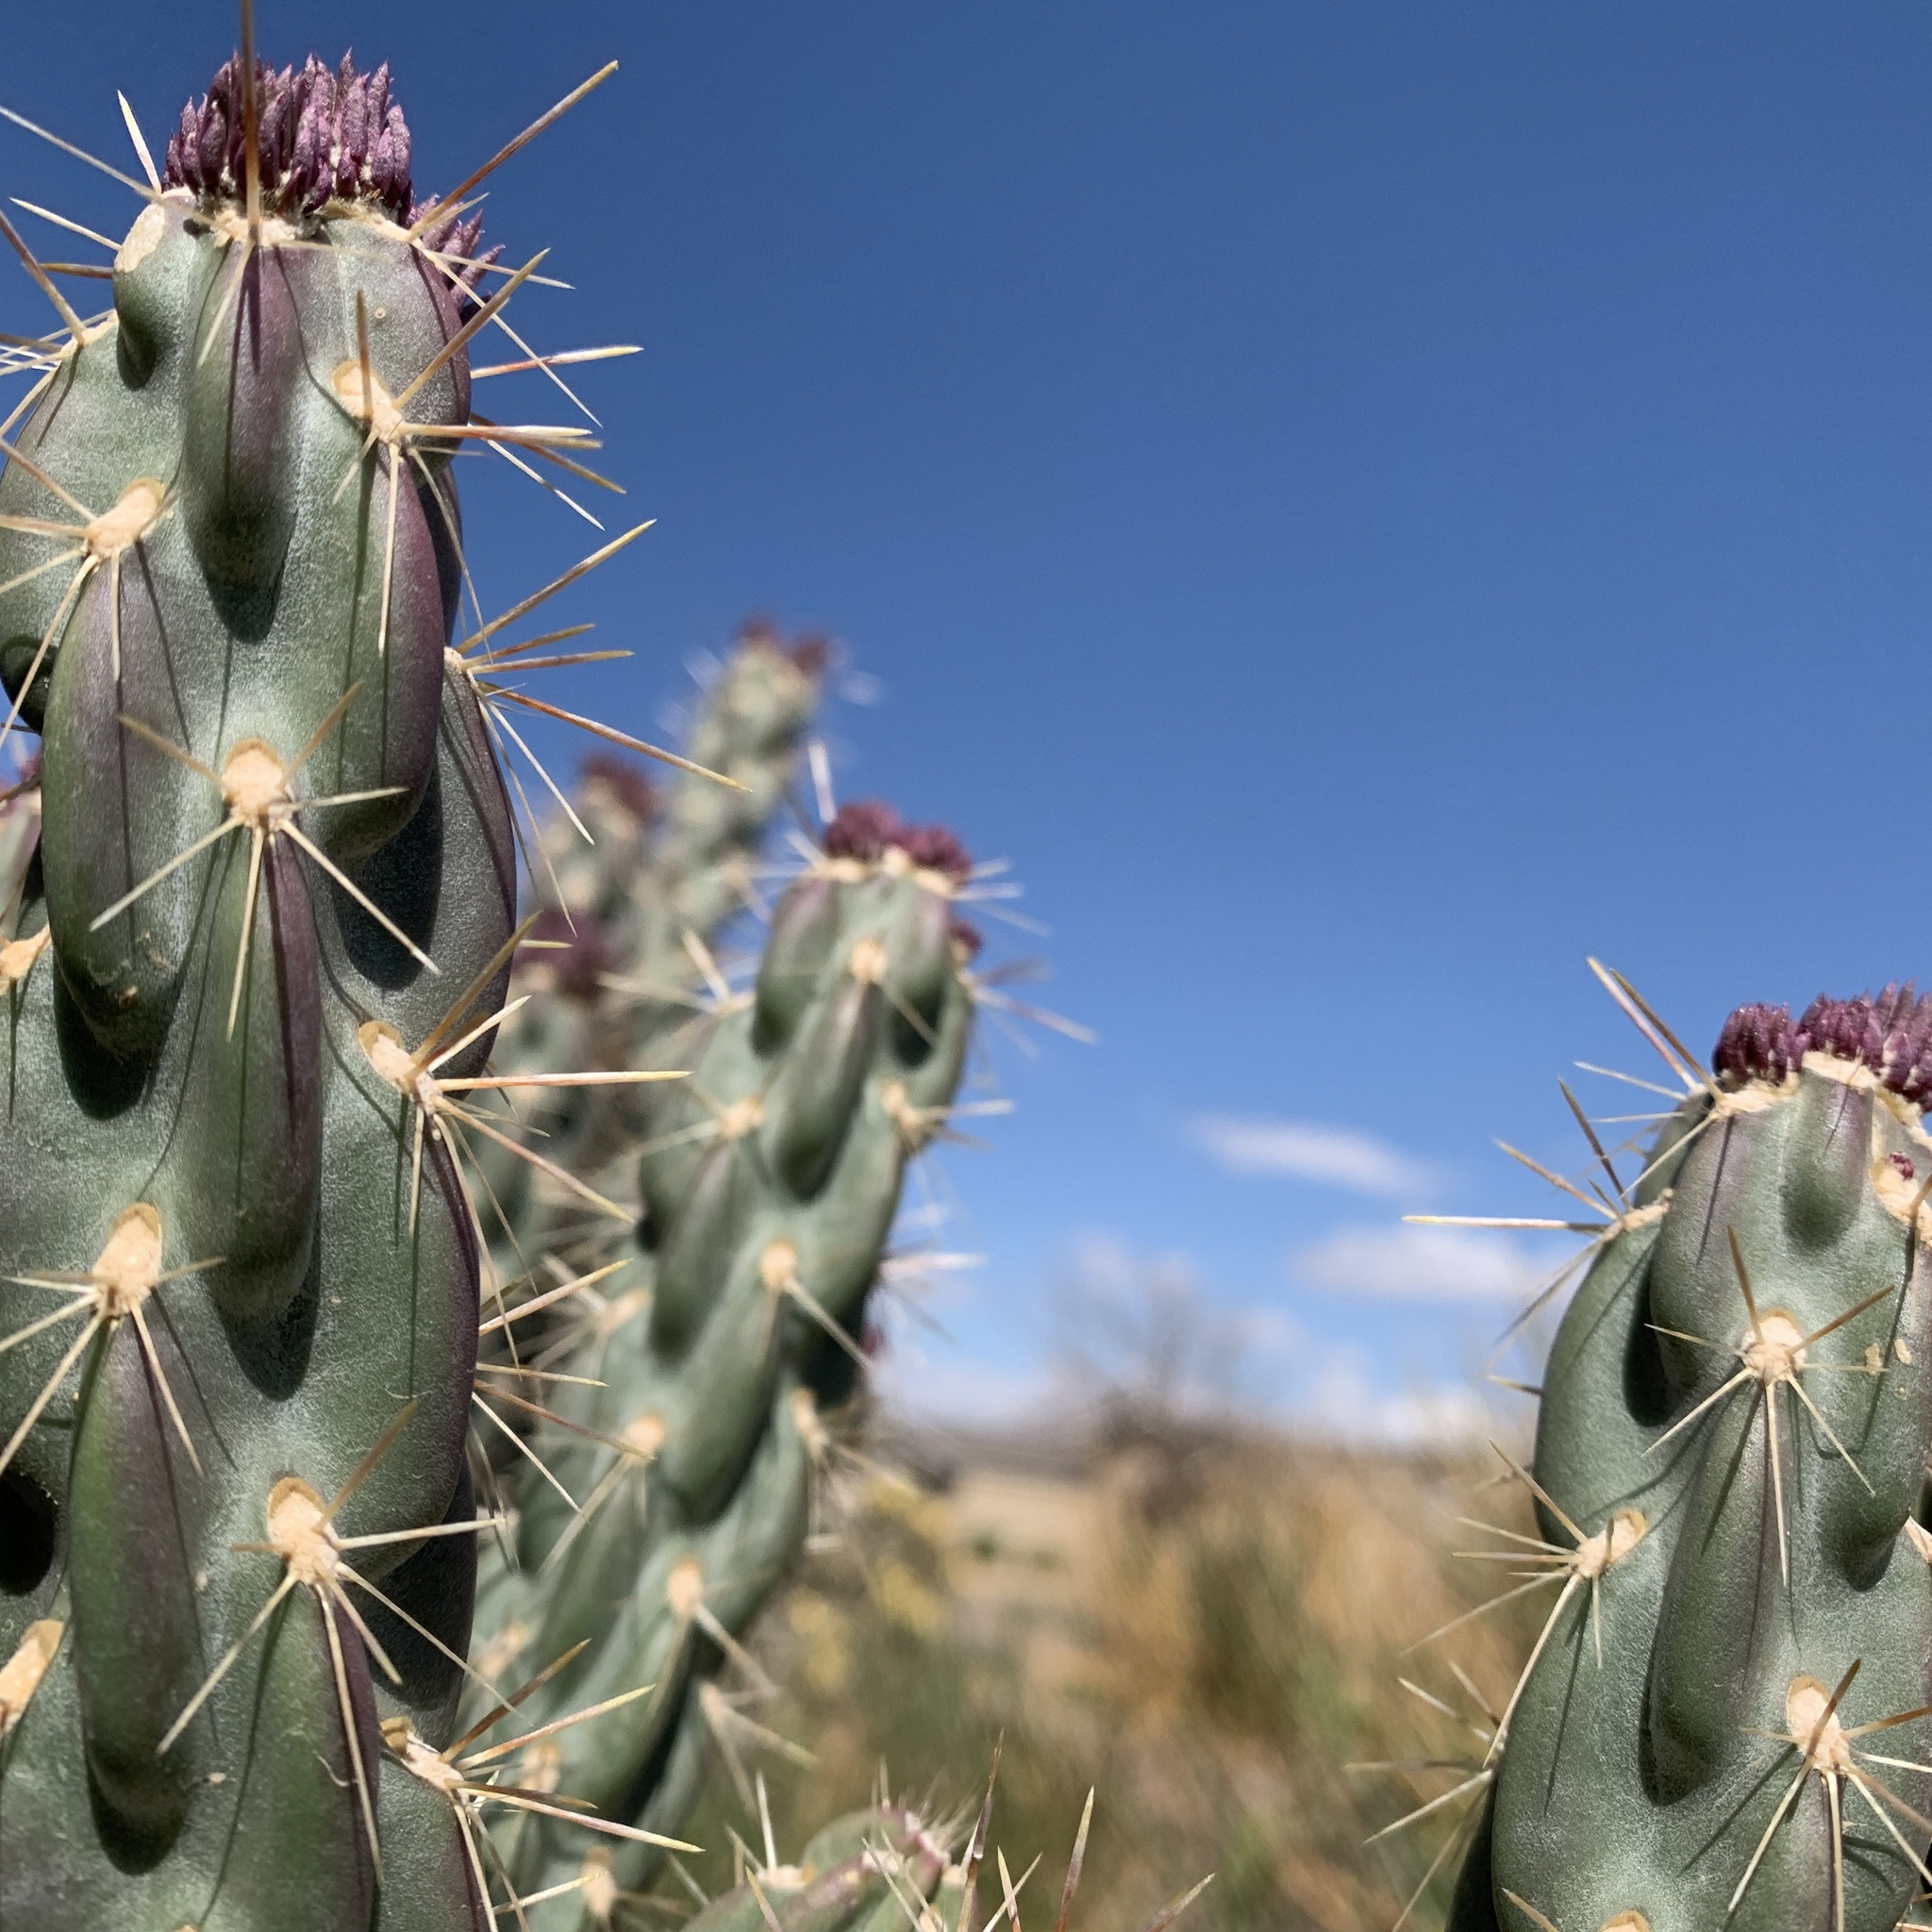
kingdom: Plantae
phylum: Tracheophyta
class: Magnoliopsida
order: Caryophyllales
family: Cactaceae
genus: Cylindropuntia
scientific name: Cylindropuntia imbricata
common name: Candelabrum cactus
